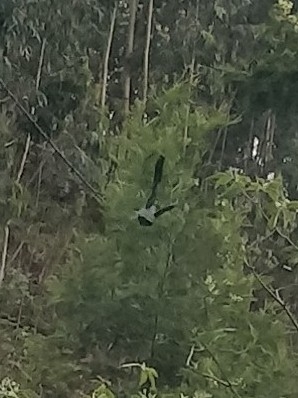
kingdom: Animalia
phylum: Chordata
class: Aves
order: Columbiformes
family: Columbidae
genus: Columba
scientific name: Columba trocaz
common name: Trocaz pigeon
